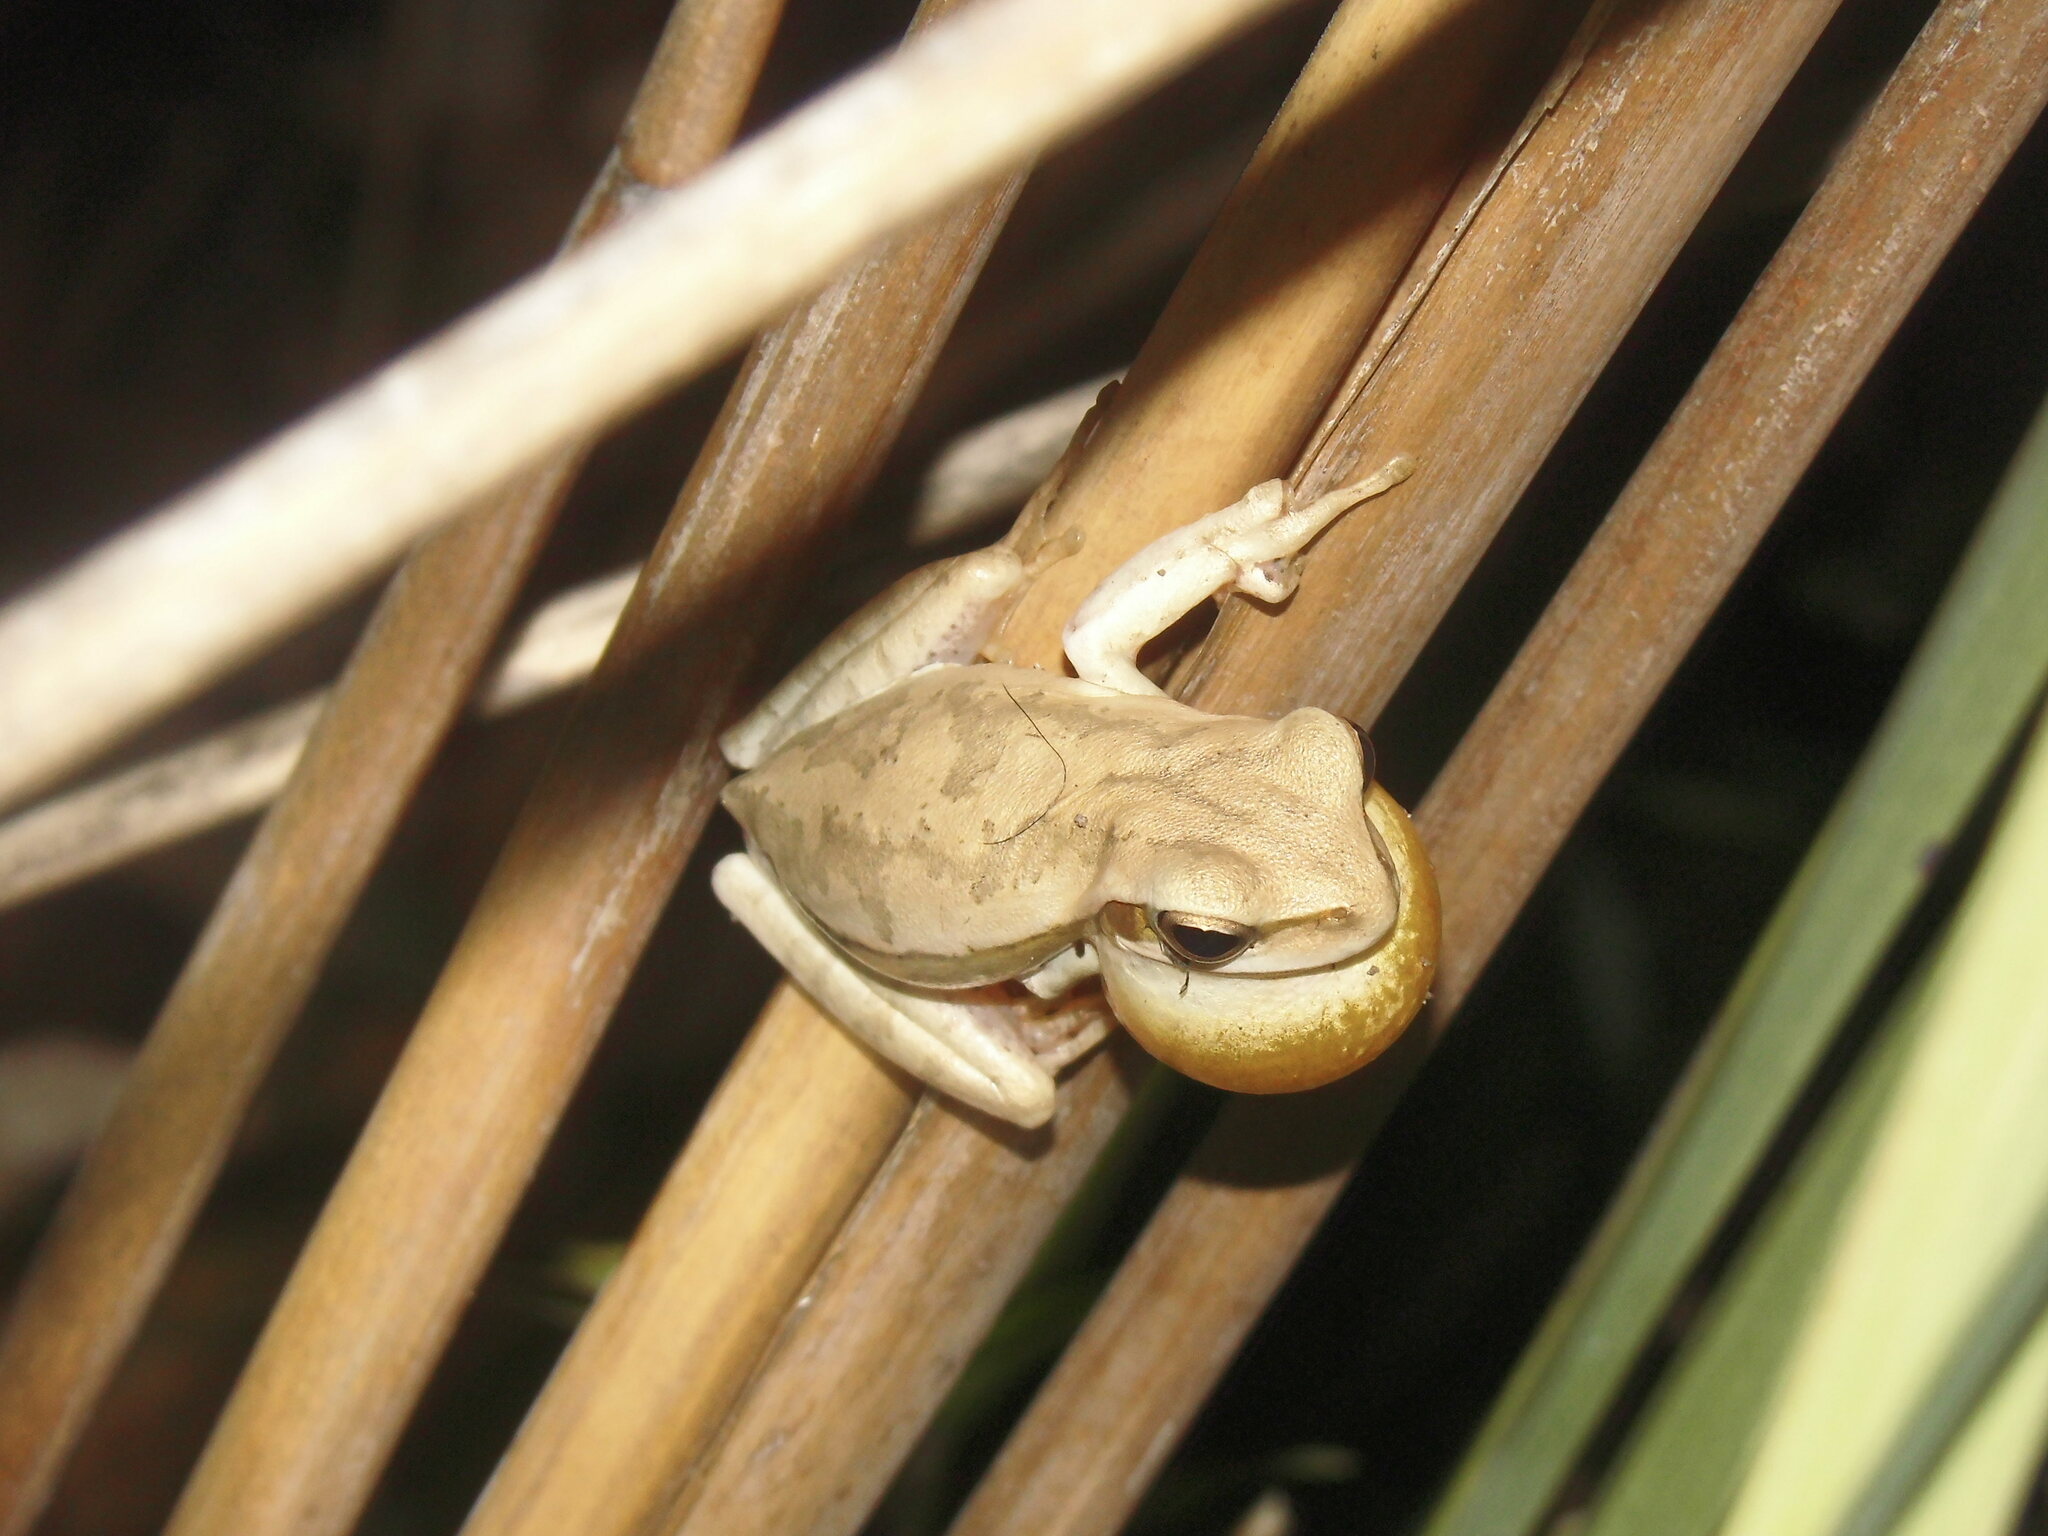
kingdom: Animalia
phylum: Chordata
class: Amphibia
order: Anura
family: Hylidae
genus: Boana
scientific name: Boana pulchella
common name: Montevideo treefrog
